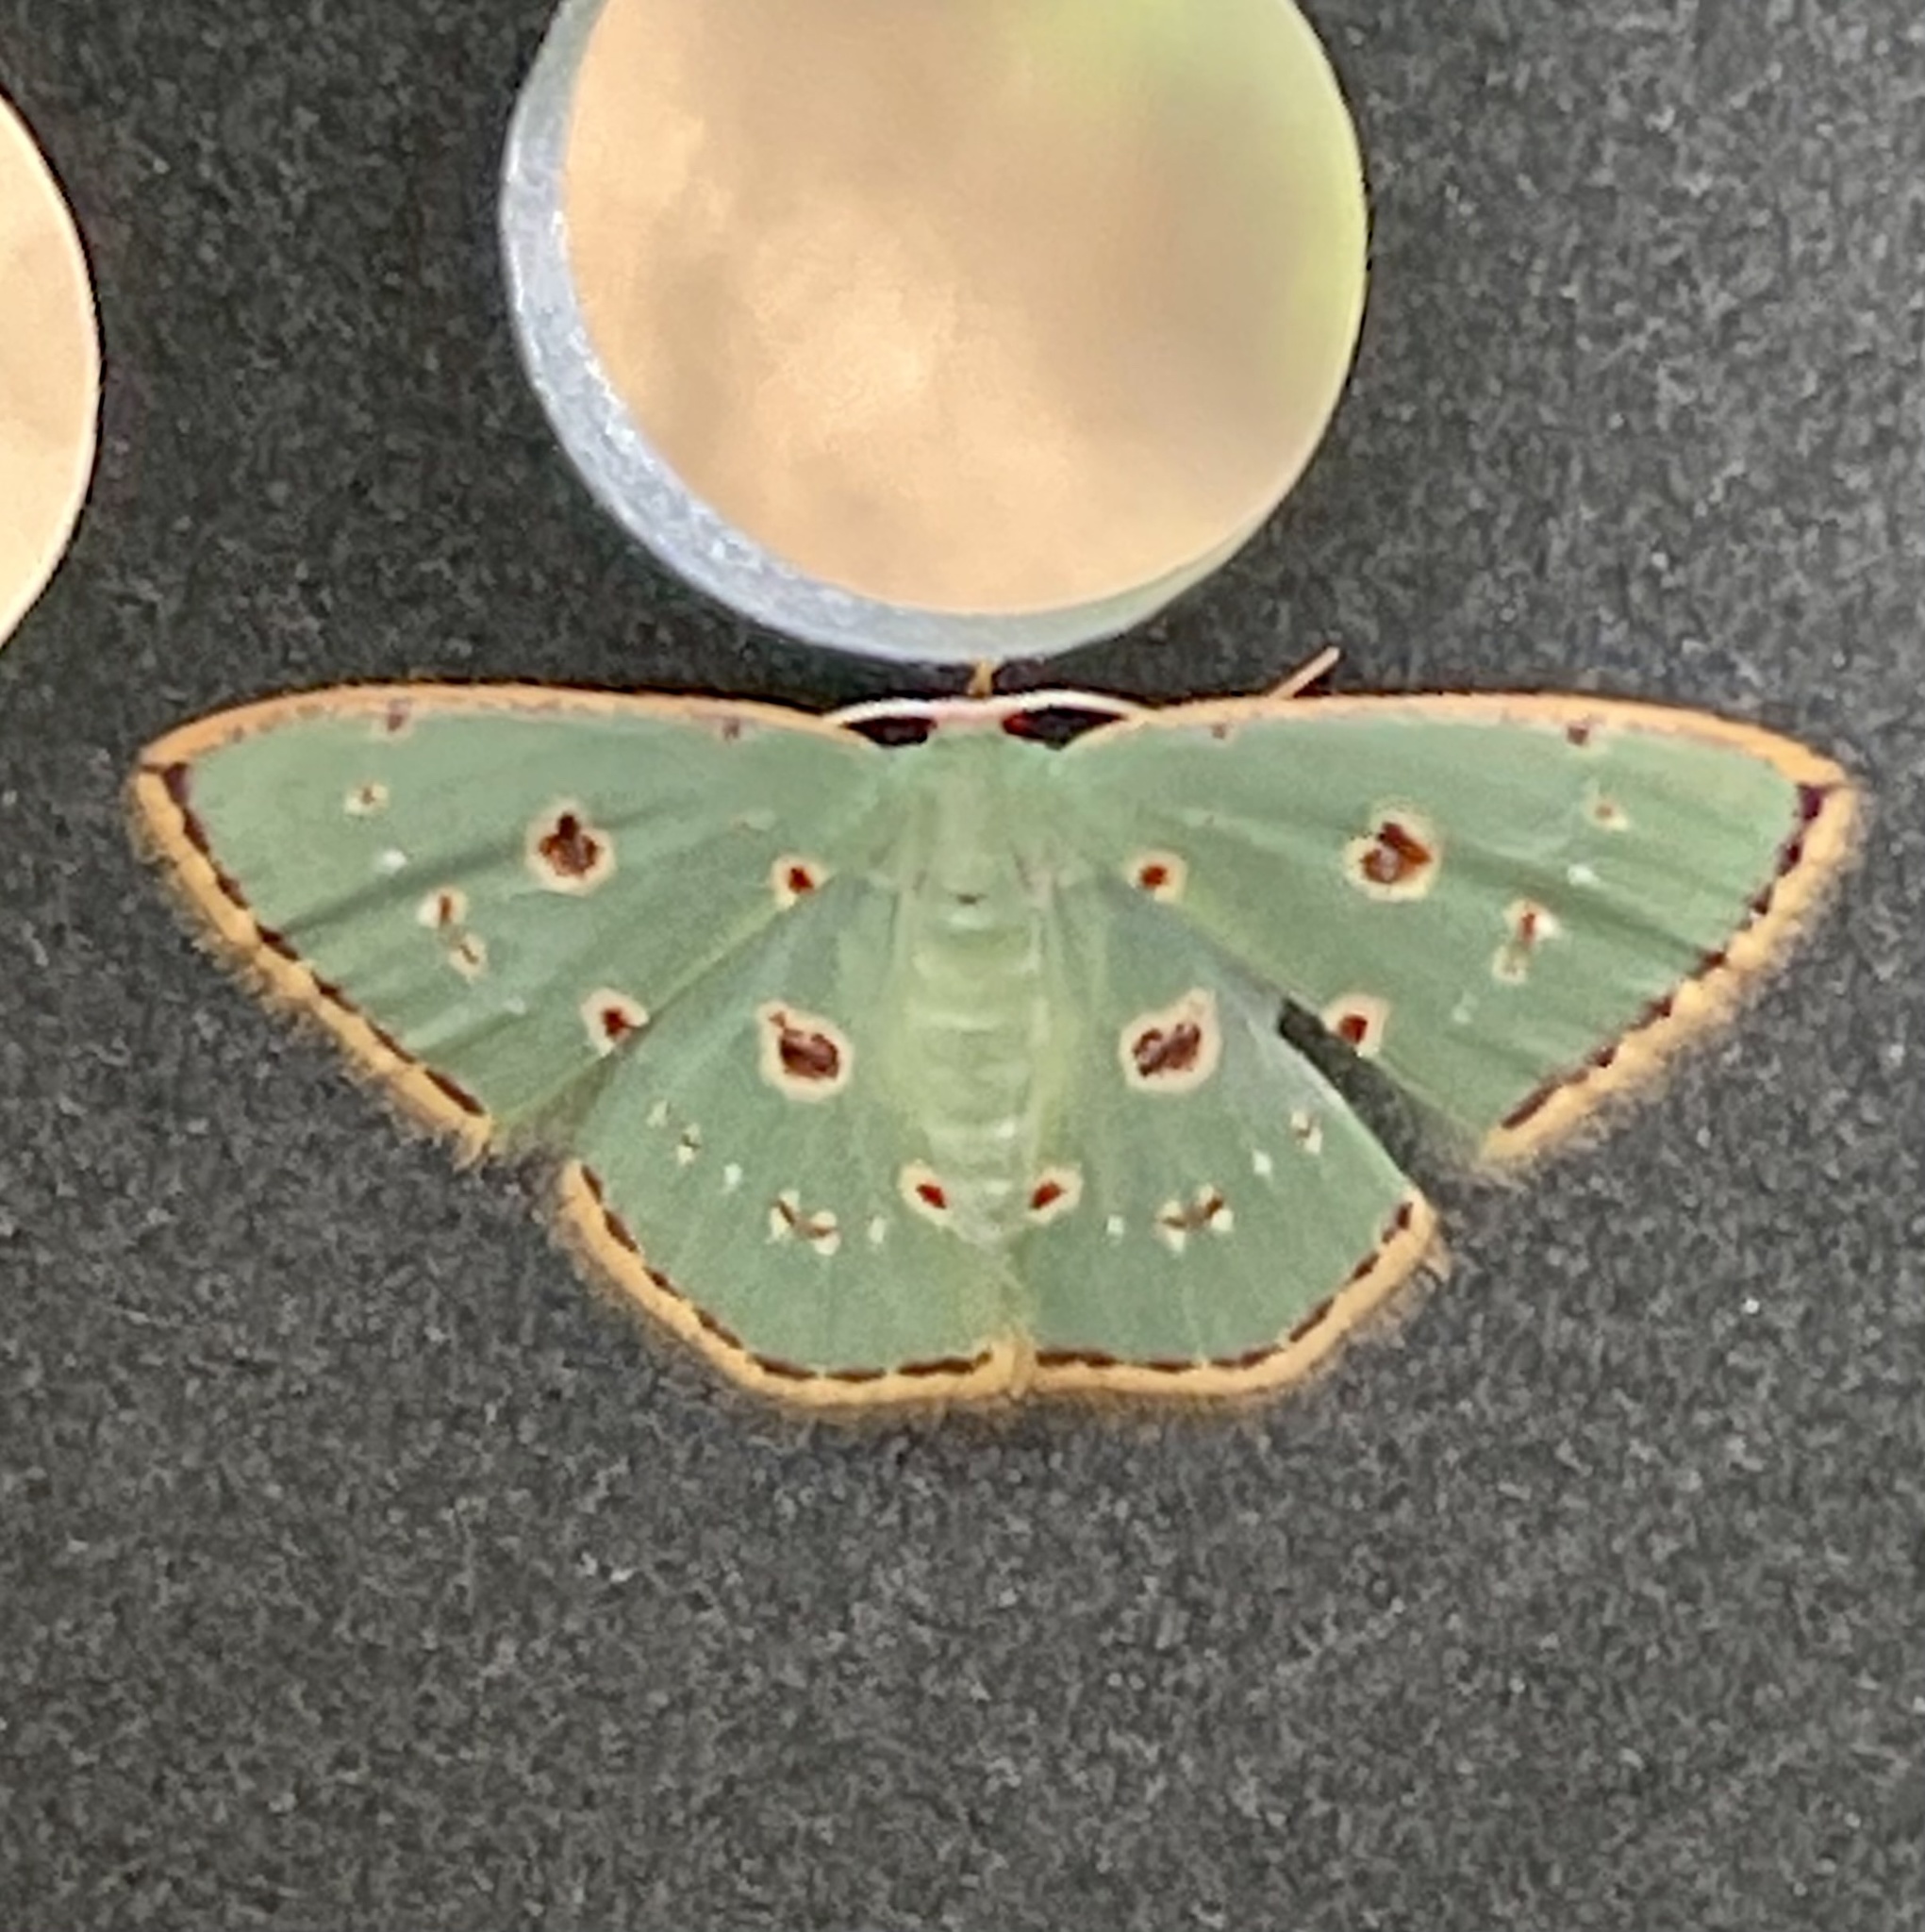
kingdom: Animalia
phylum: Arthropoda
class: Insecta
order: Lepidoptera
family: Geometridae
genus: Comostola
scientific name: Comostola laesaria
